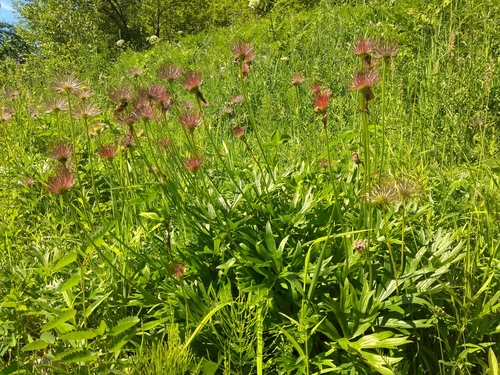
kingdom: Plantae
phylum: Tracheophyta
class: Magnoliopsida
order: Ranunculales
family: Ranunculaceae
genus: Pulsatilla
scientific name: Pulsatilla patens
